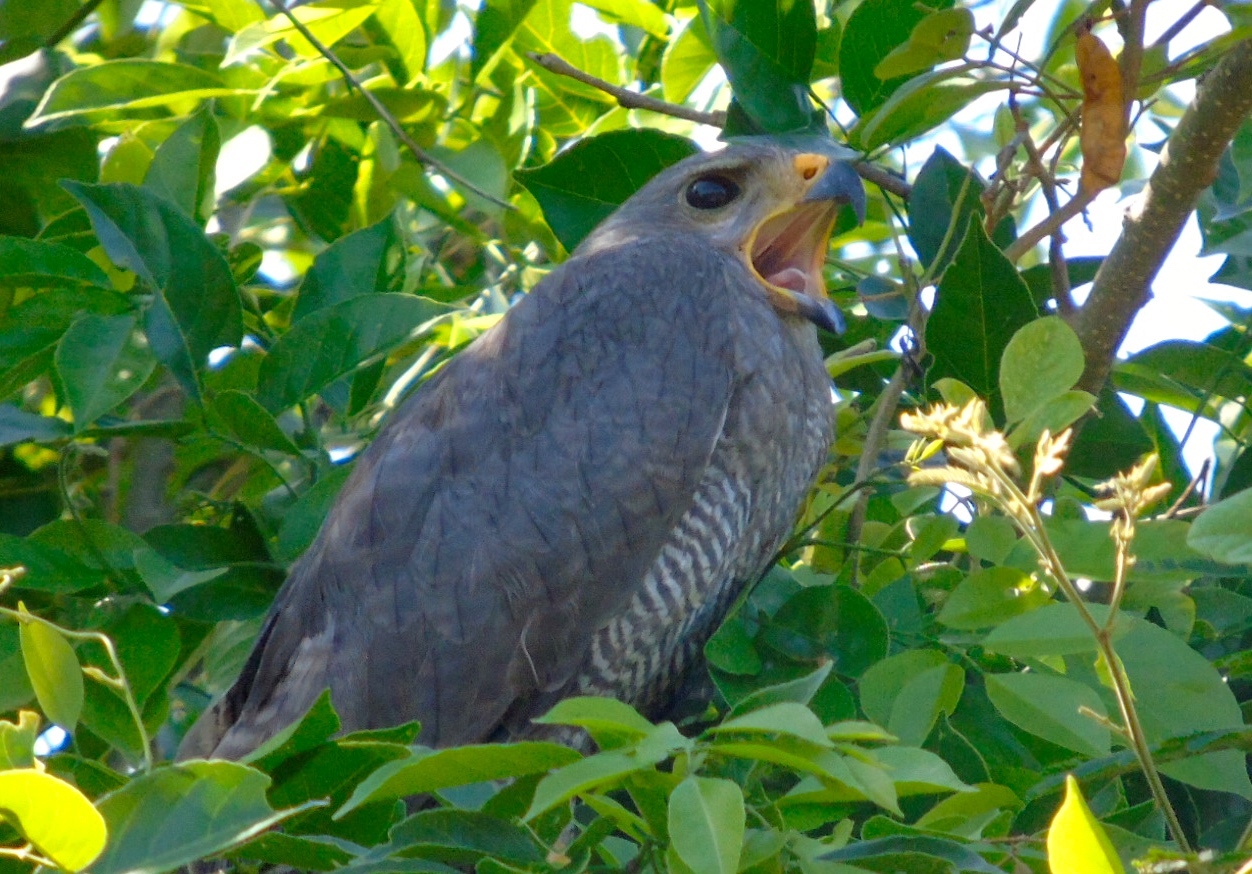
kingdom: Animalia
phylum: Chordata
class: Aves
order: Accipitriformes
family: Accipitridae
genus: Buteo
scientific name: Buteo nitidus
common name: Grey-lined hawk
